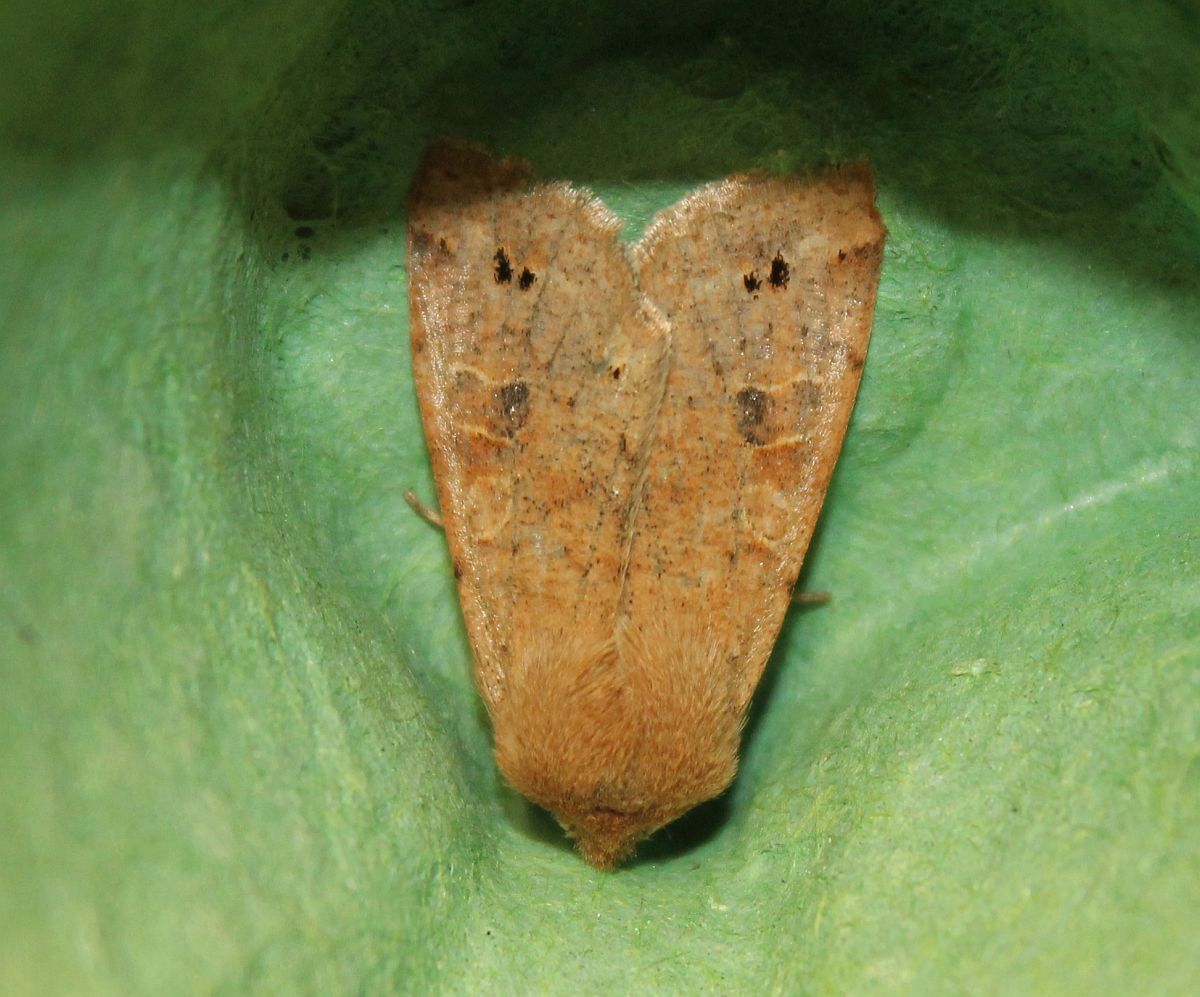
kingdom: Animalia
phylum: Arthropoda
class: Insecta
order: Lepidoptera
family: Noctuidae
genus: Anorthoa
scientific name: Anorthoa munda
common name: Twin-spotted quaker
